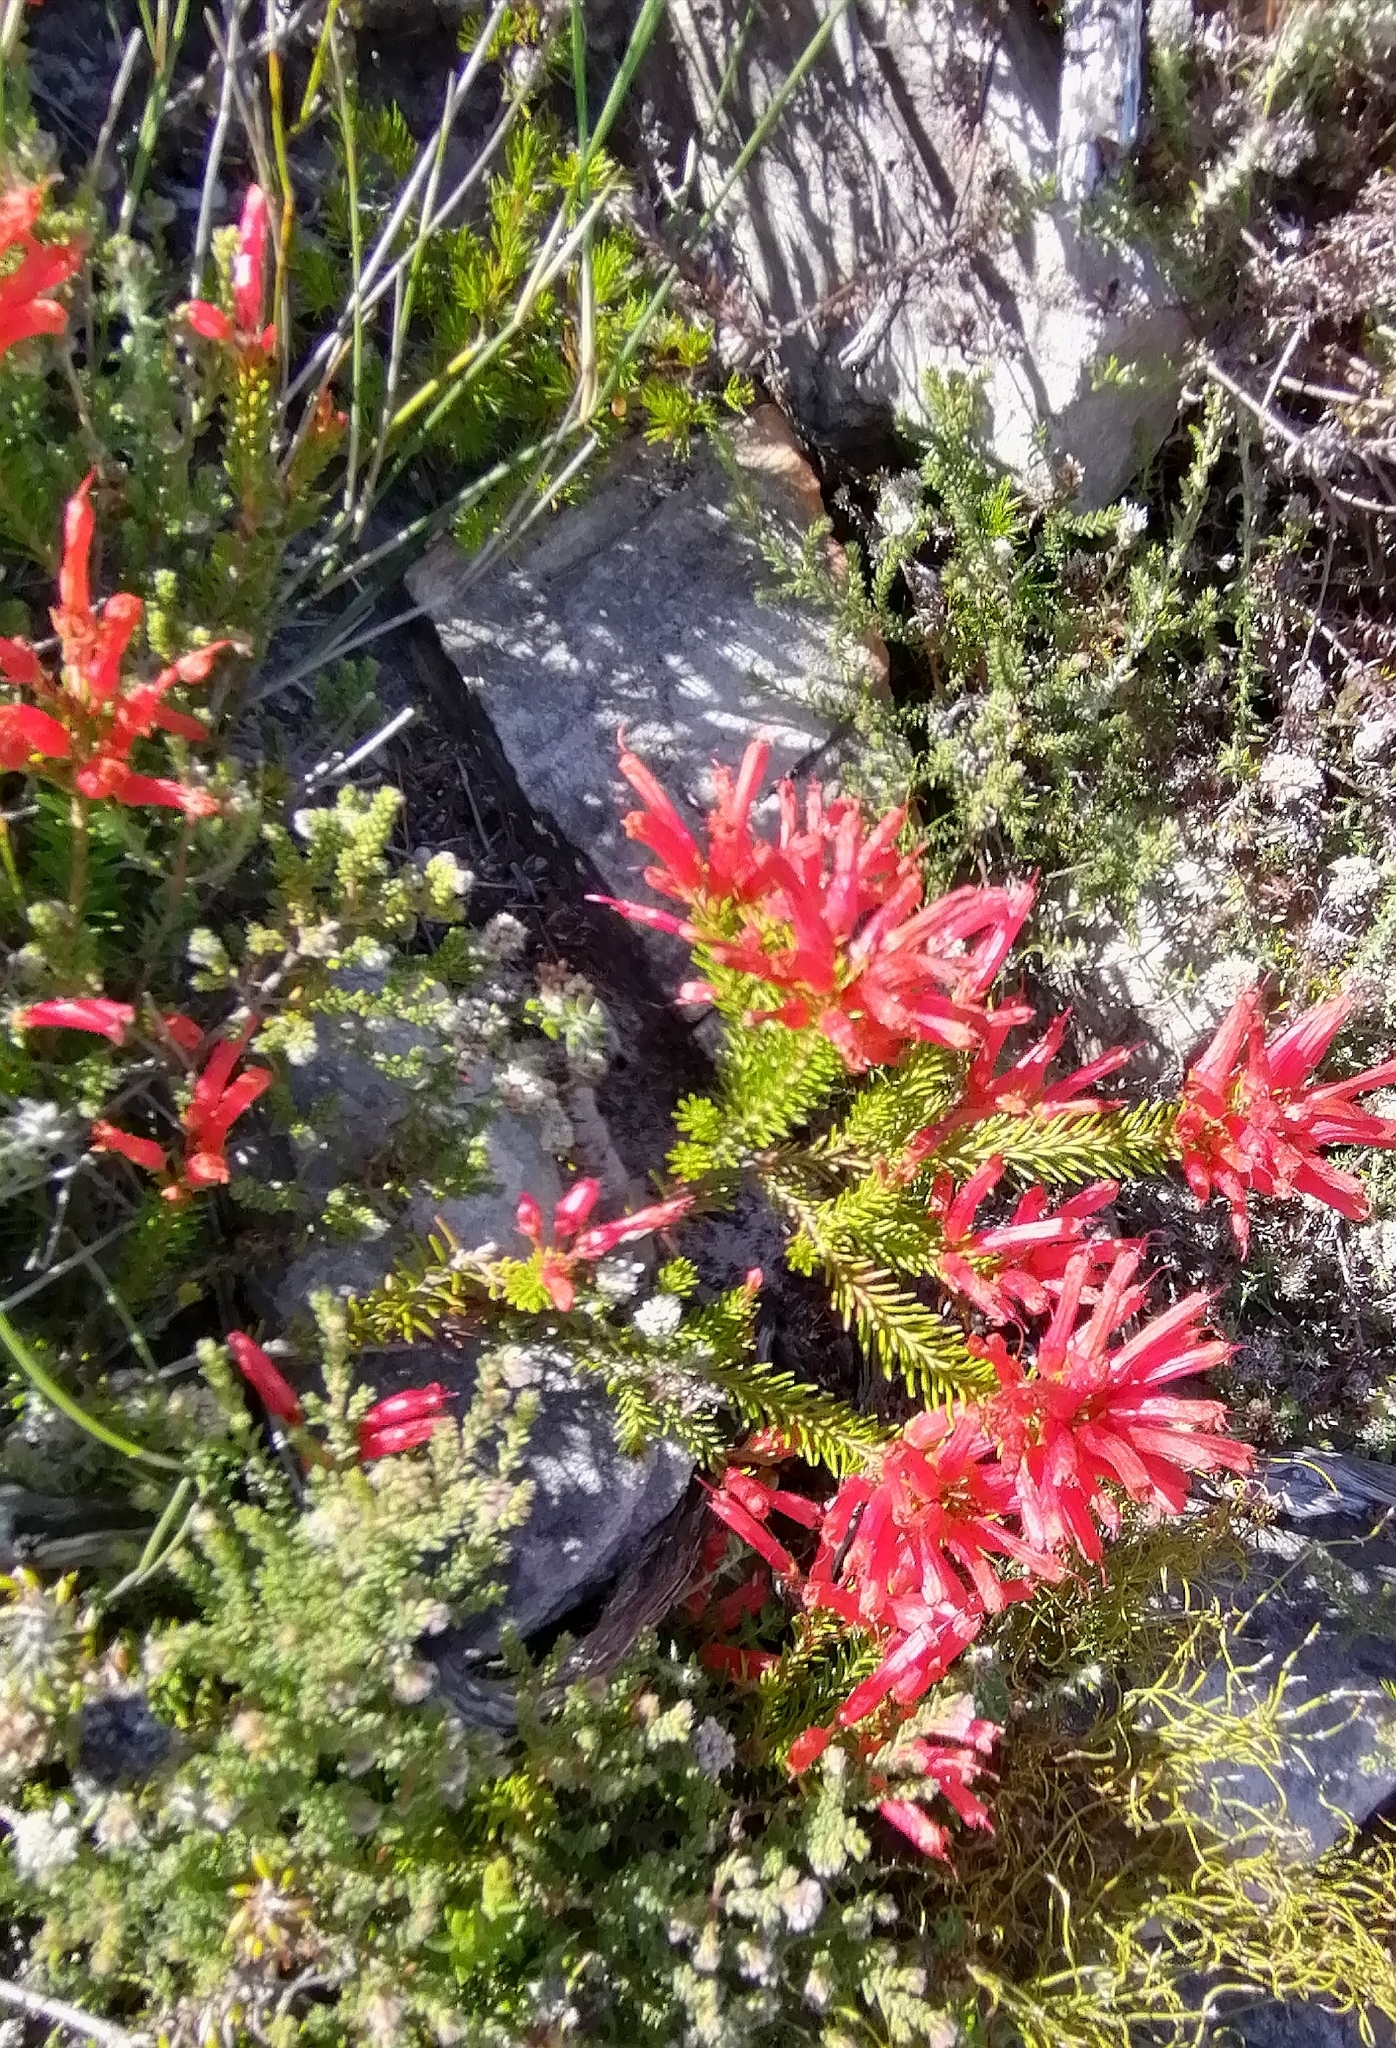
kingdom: Plantae
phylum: Tracheophyta
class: Magnoliopsida
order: Ericales
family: Ericaceae
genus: Erica
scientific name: Erica nevillei
